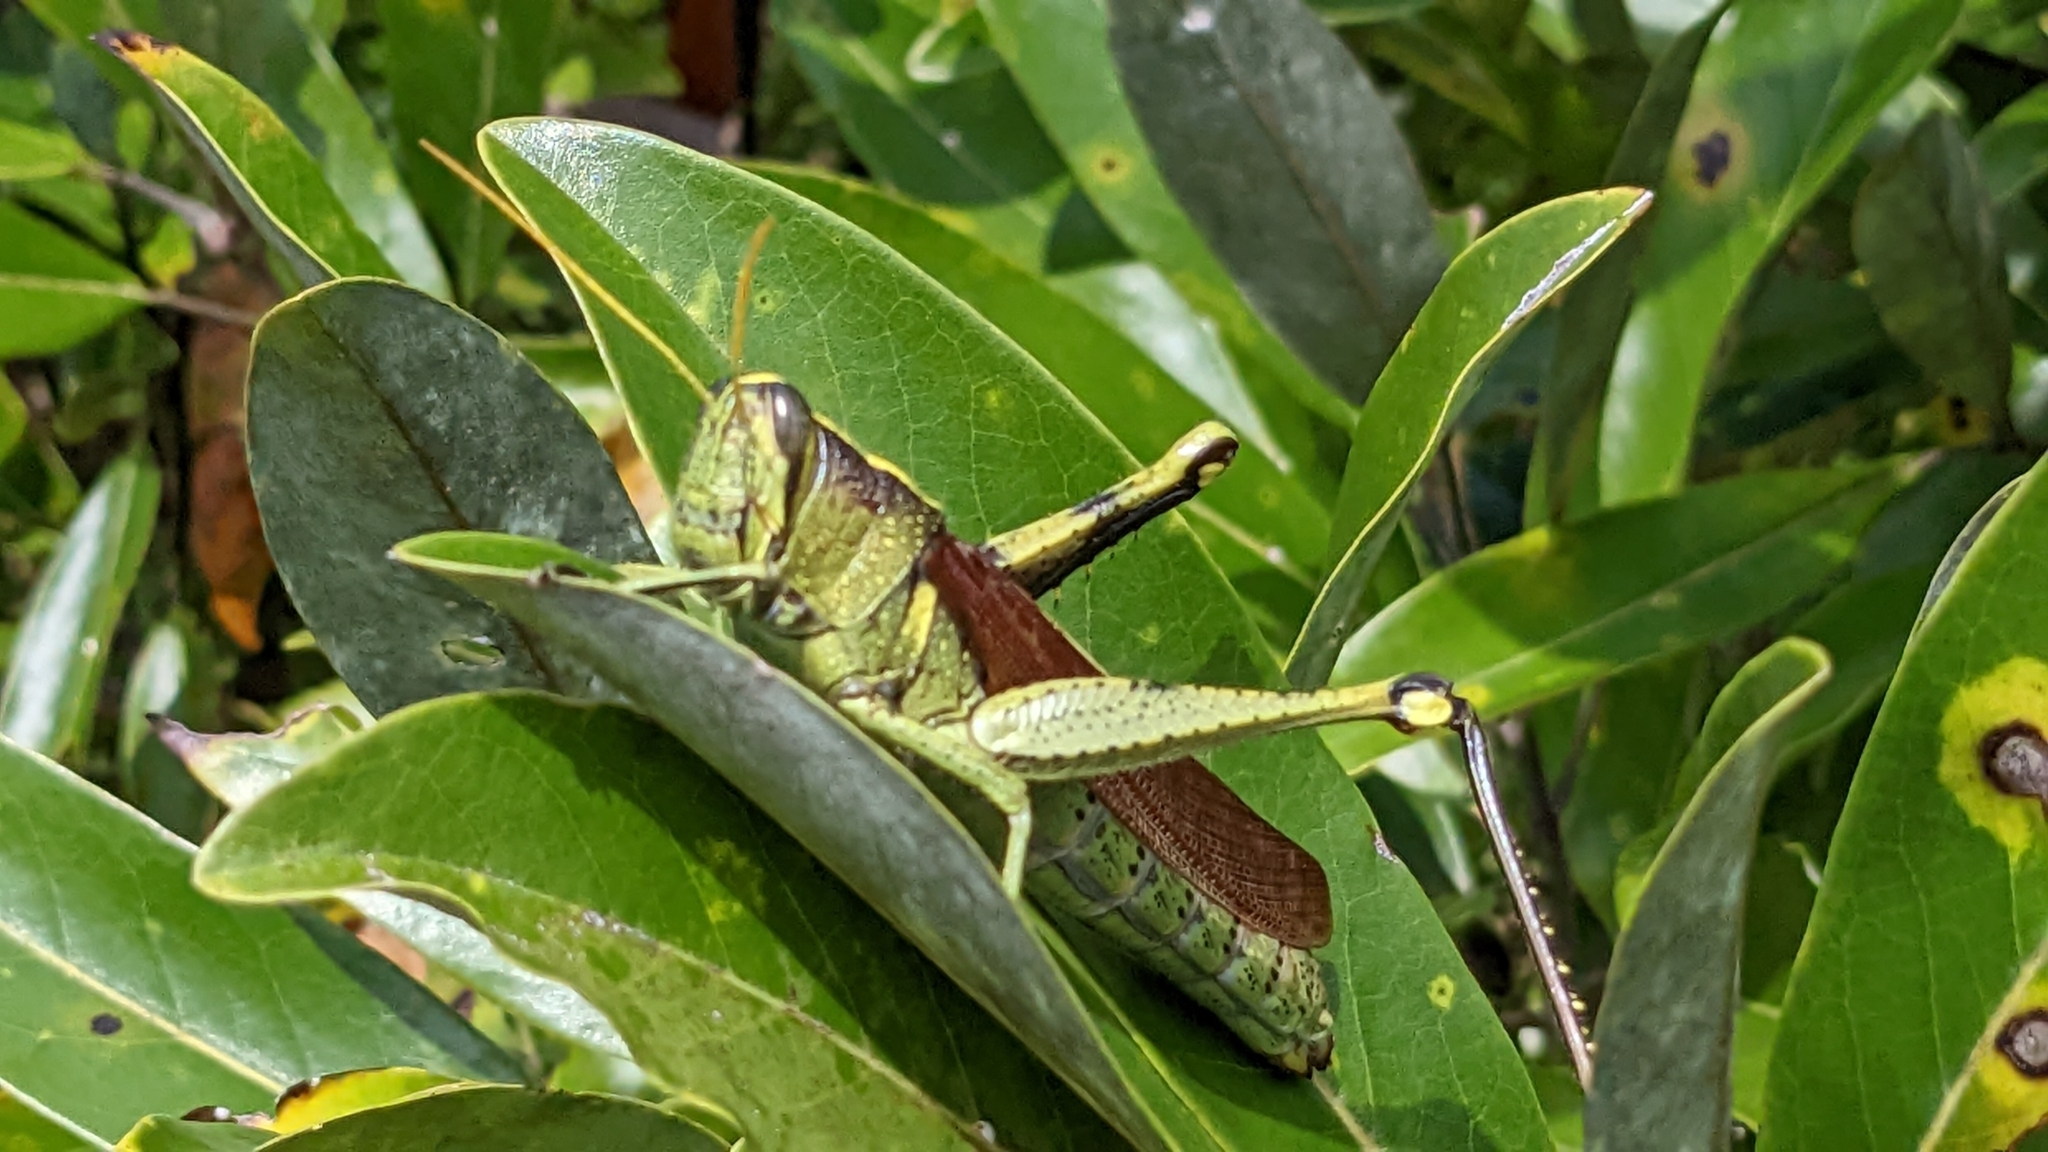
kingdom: Animalia
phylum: Arthropoda
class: Insecta
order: Orthoptera
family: Acrididae
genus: Schistocerca
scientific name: Schistocerca obscura
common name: Obscure bird grasshopper
